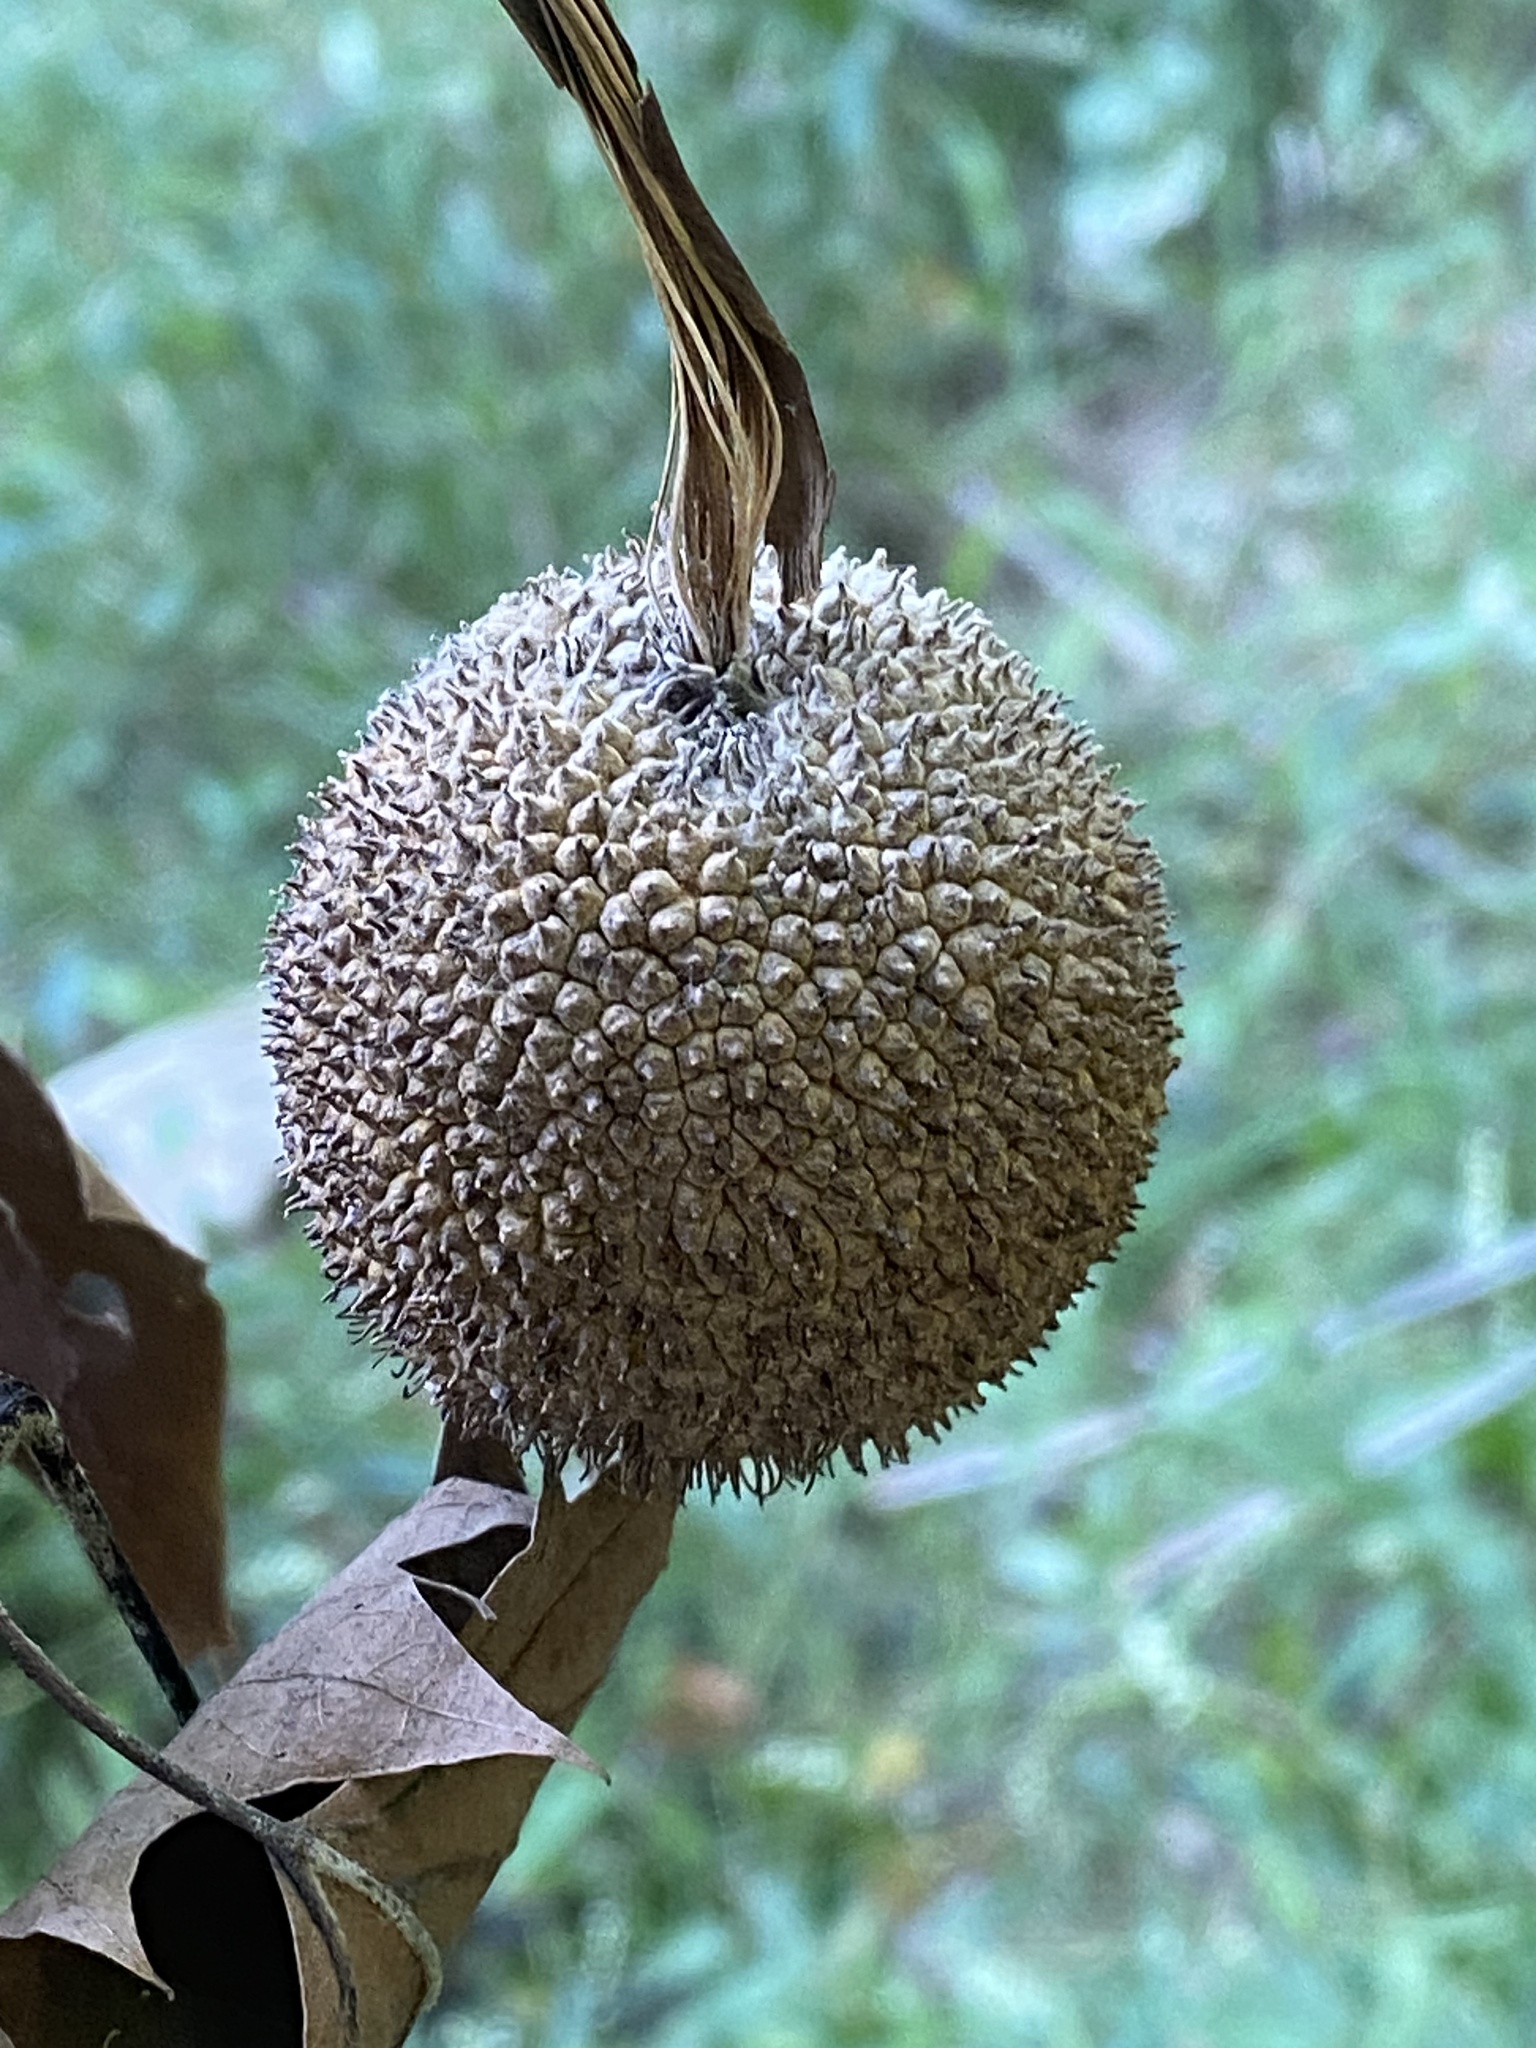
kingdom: Plantae
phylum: Tracheophyta
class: Magnoliopsida
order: Proteales
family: Platanaceae
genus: Platanus
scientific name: Platanus occidentalis
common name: American sycamore
